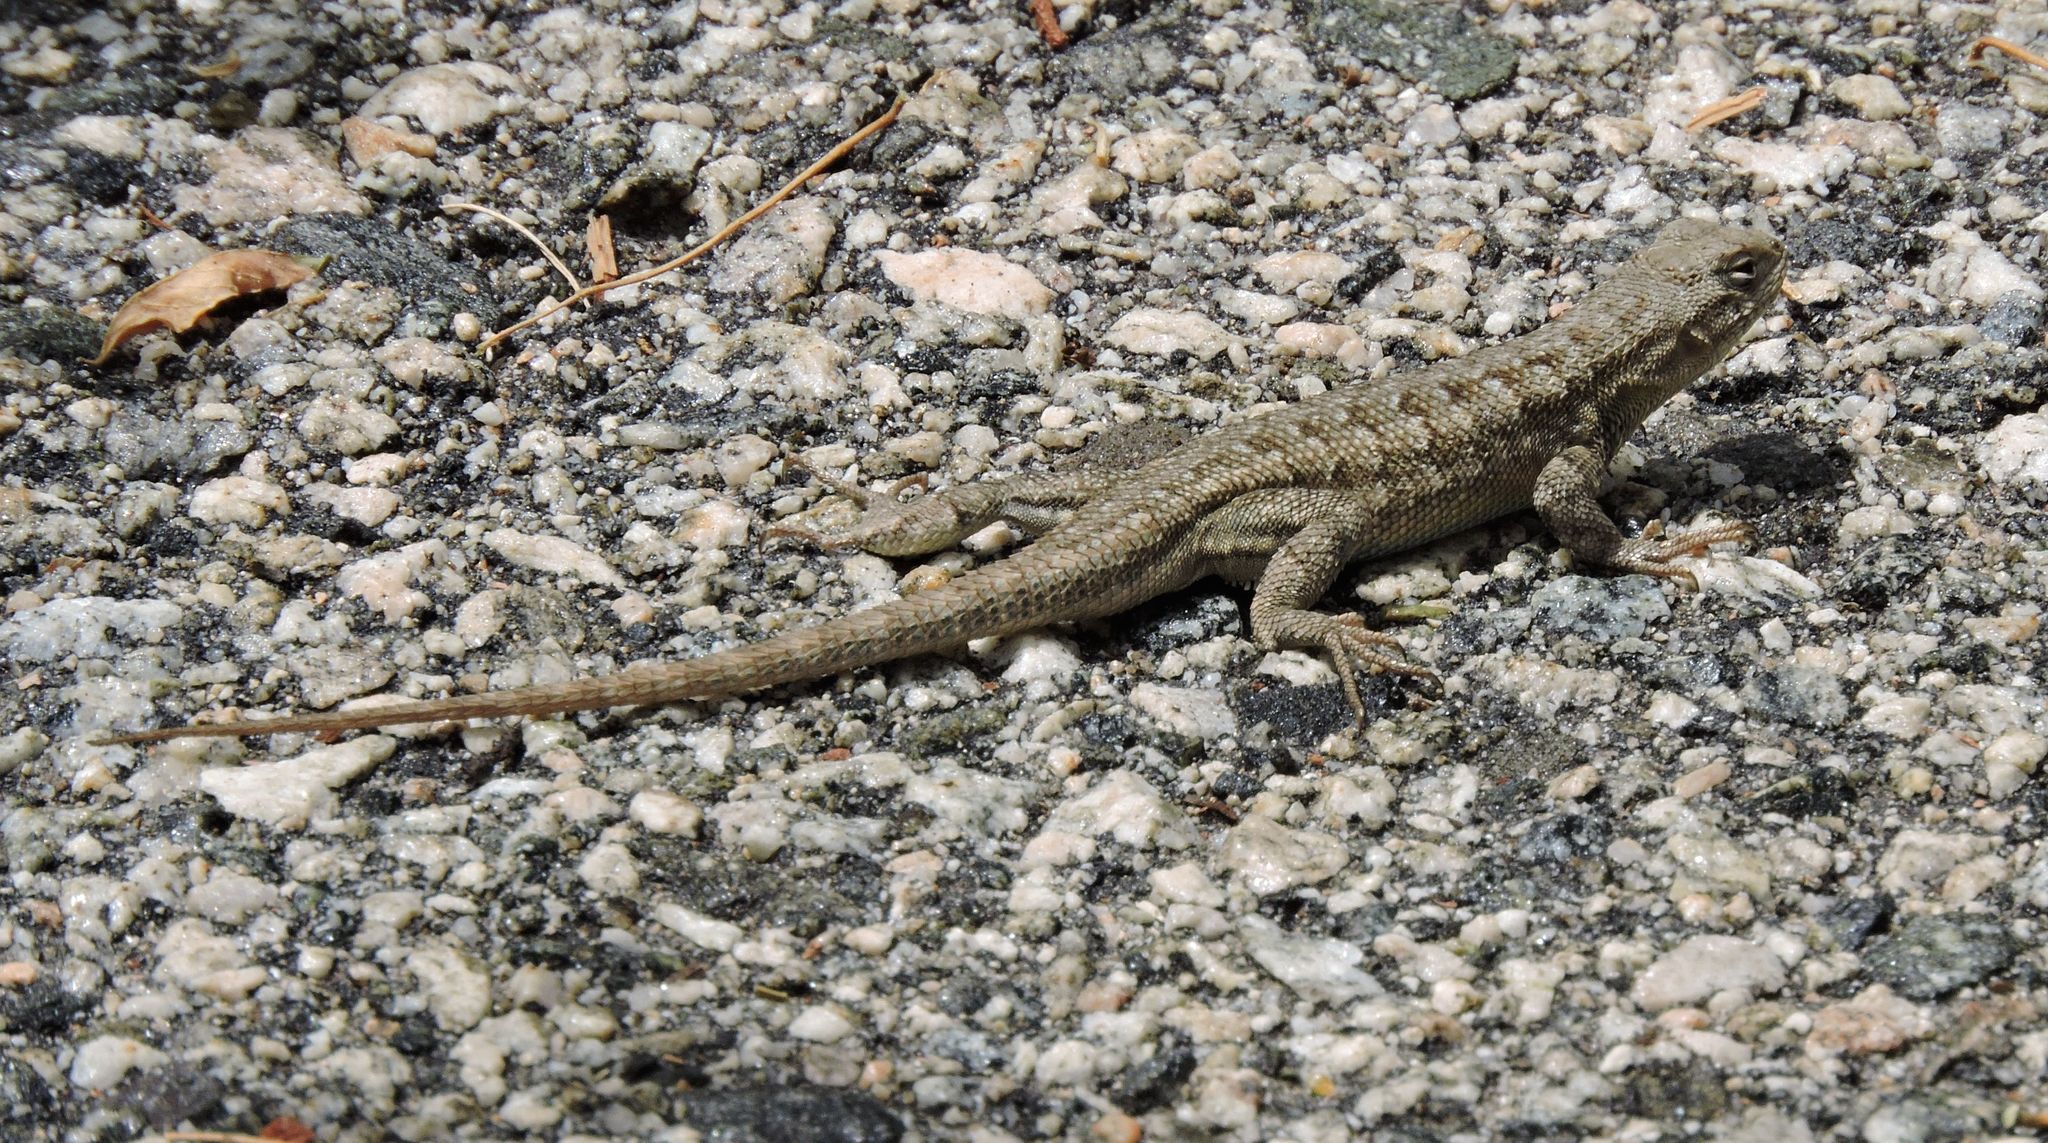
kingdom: Animalia
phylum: Chordata
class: Squamata
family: Phrynosomatidae
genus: Sceloporus
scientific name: Sceloporus occidentalis
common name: Western fence lizard
